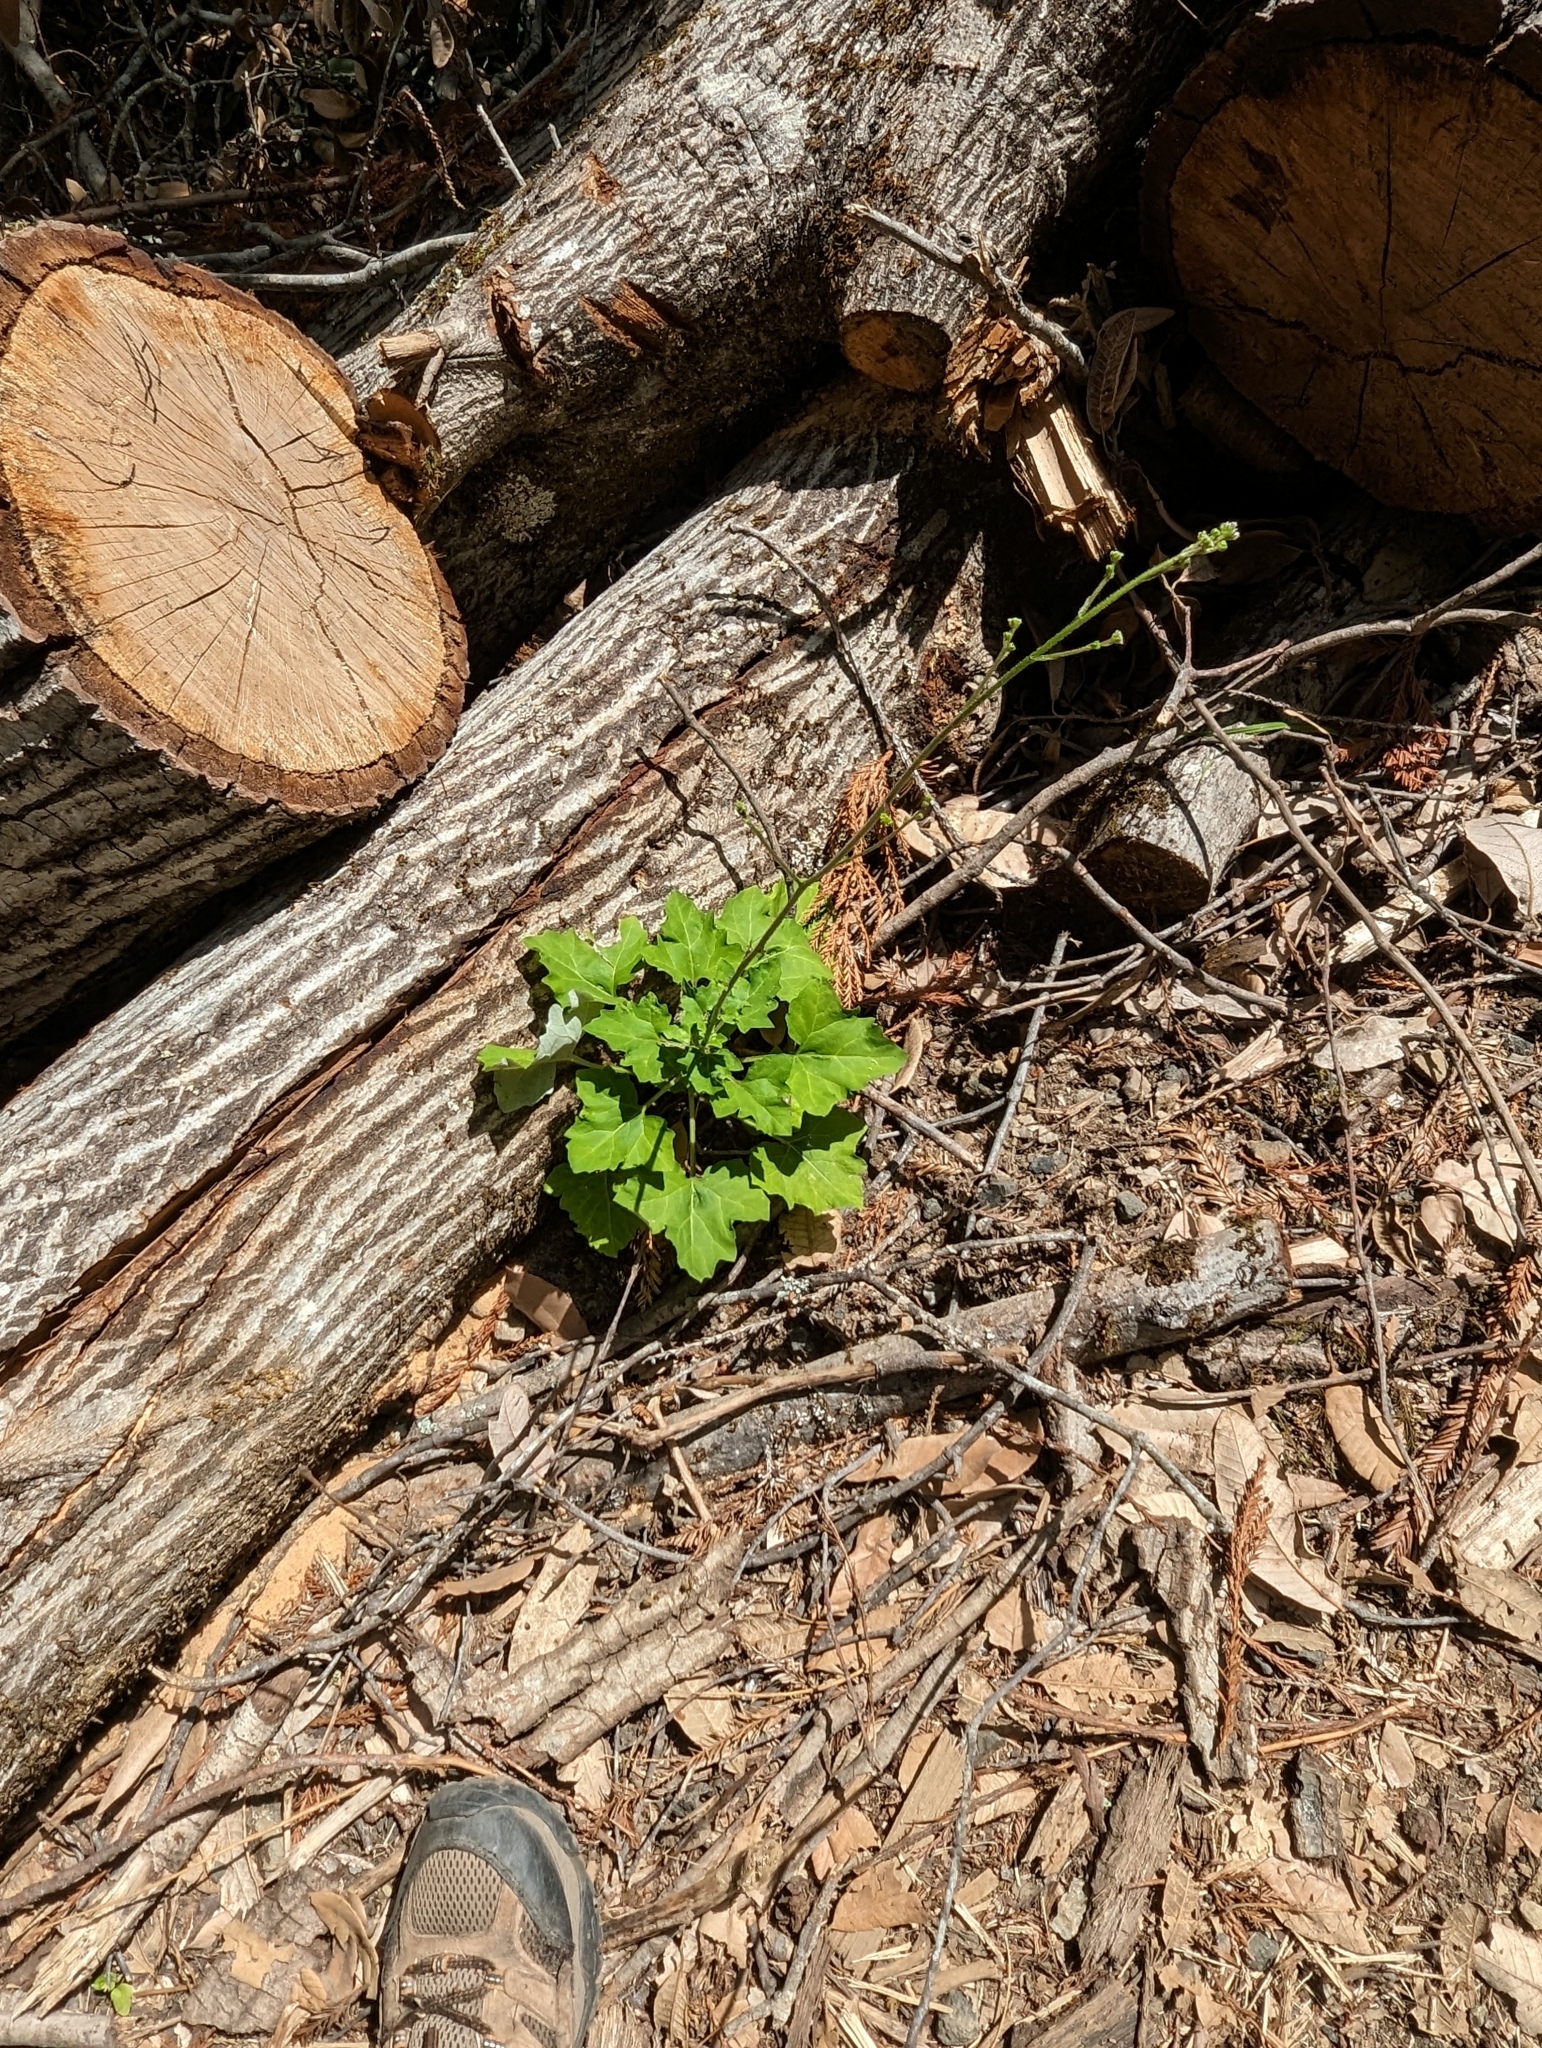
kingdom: Plantae
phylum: Tracheophyta
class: Magnoliopsida
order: Asterales
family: Asteraceae
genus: Adenocaulon
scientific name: Adenocaulon bicolor
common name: Trailplant
